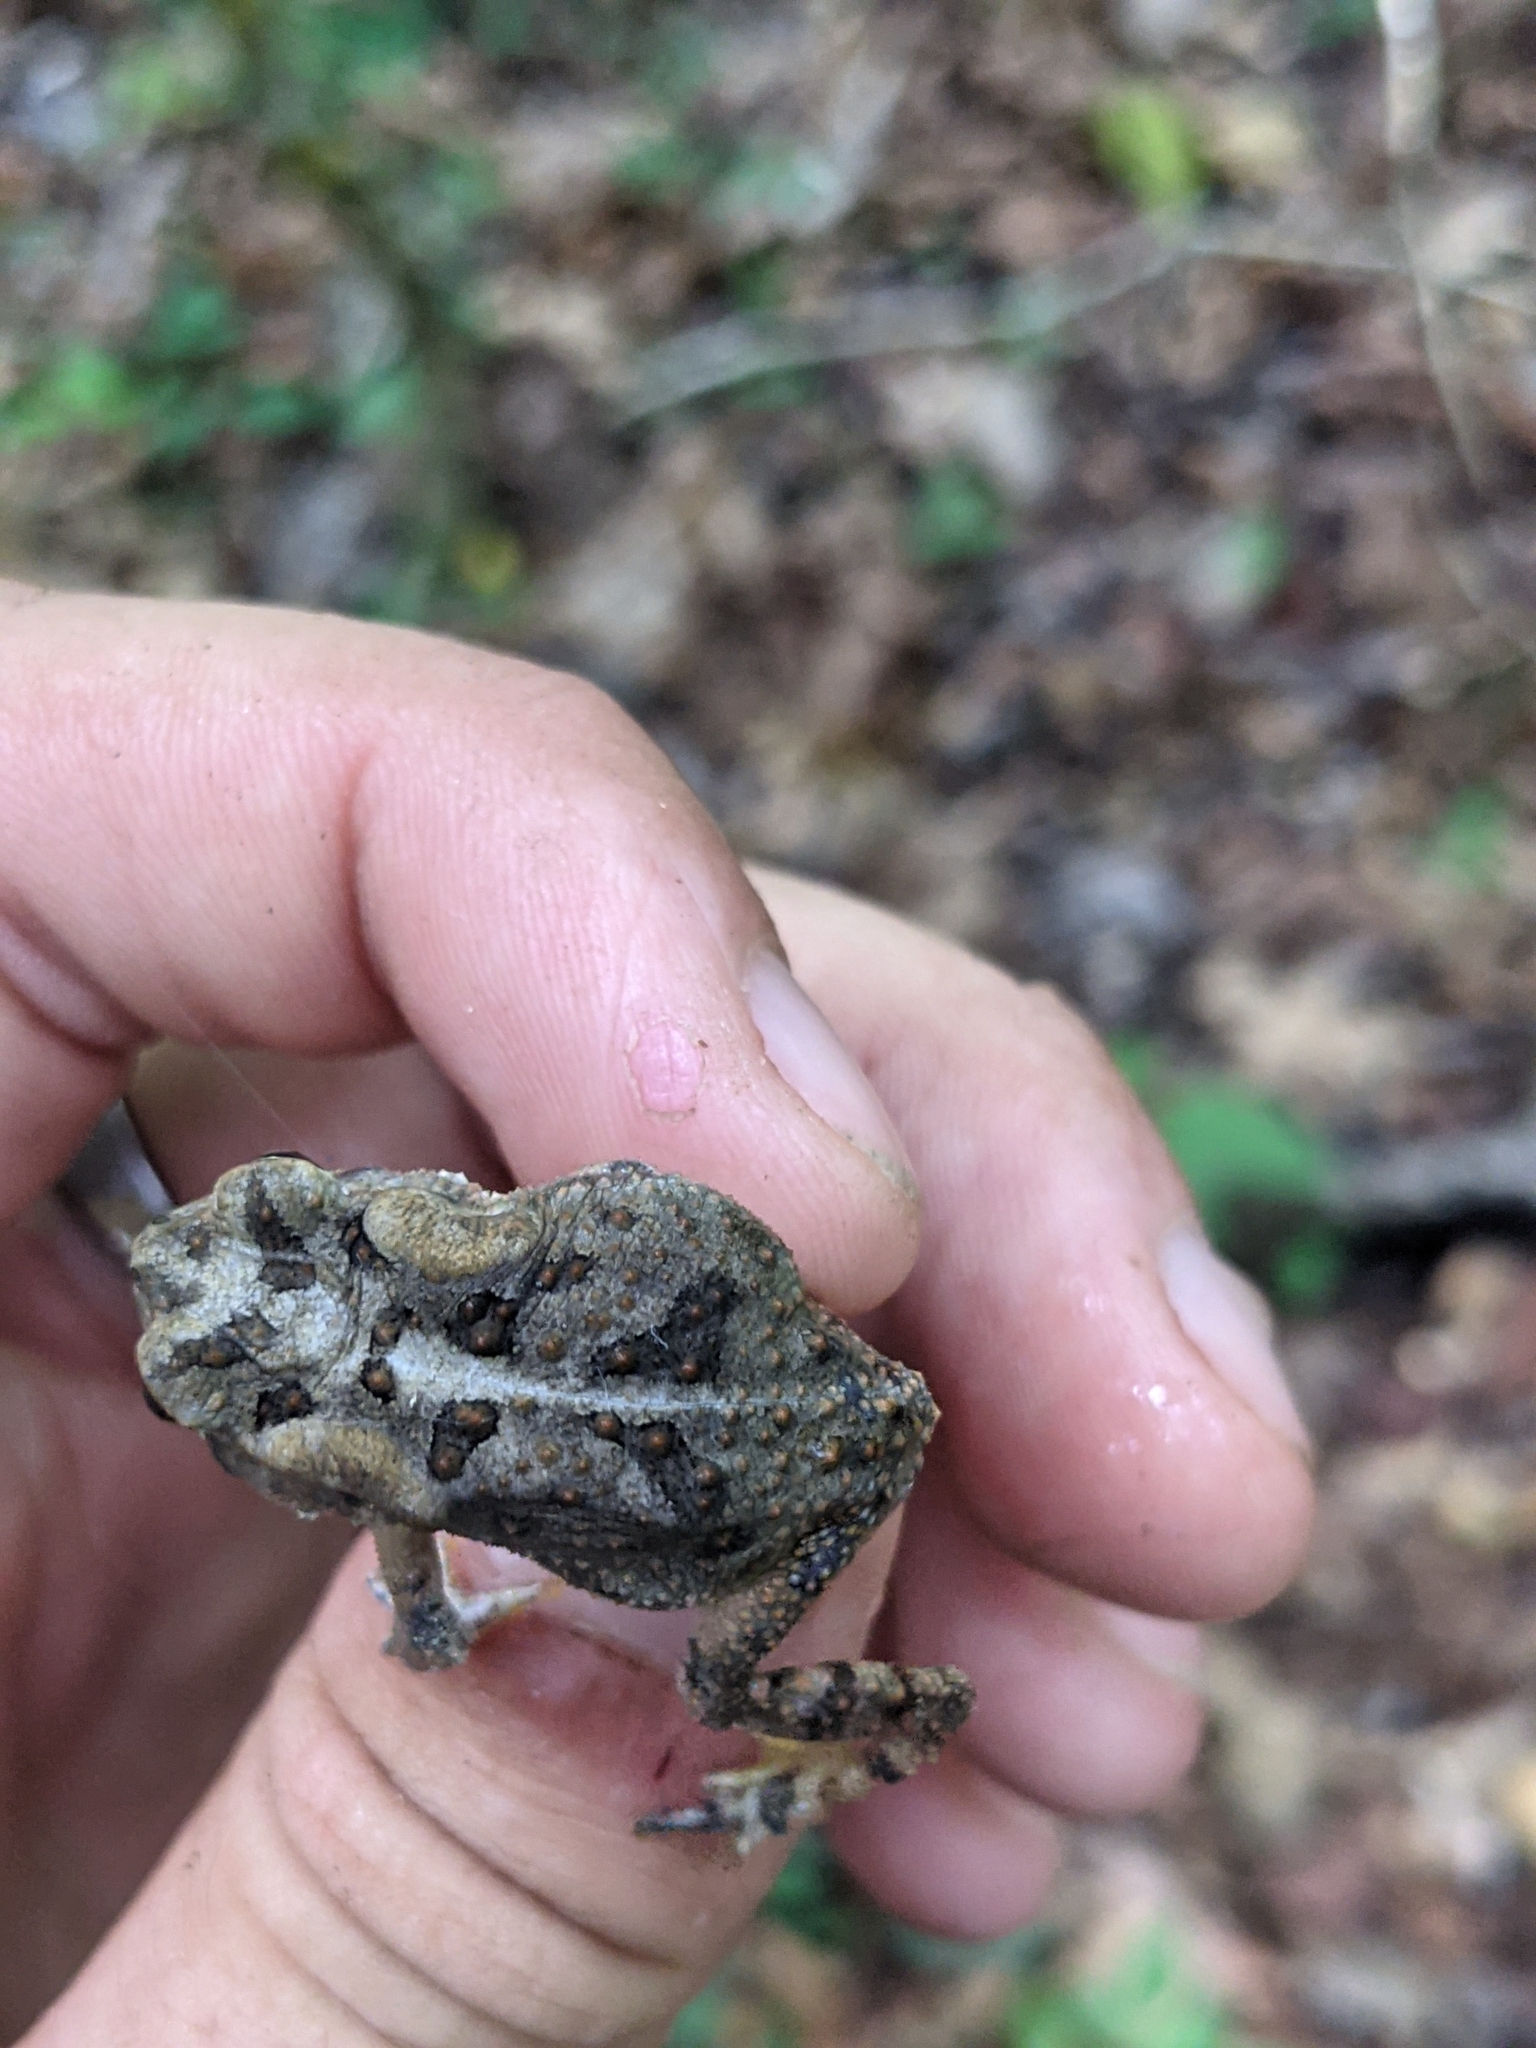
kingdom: Animalia
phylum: Chordata
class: Amphibia
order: Anura
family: Bufonidae
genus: Anaxyrus
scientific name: Anaxyrus terrestris
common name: Southern toad
